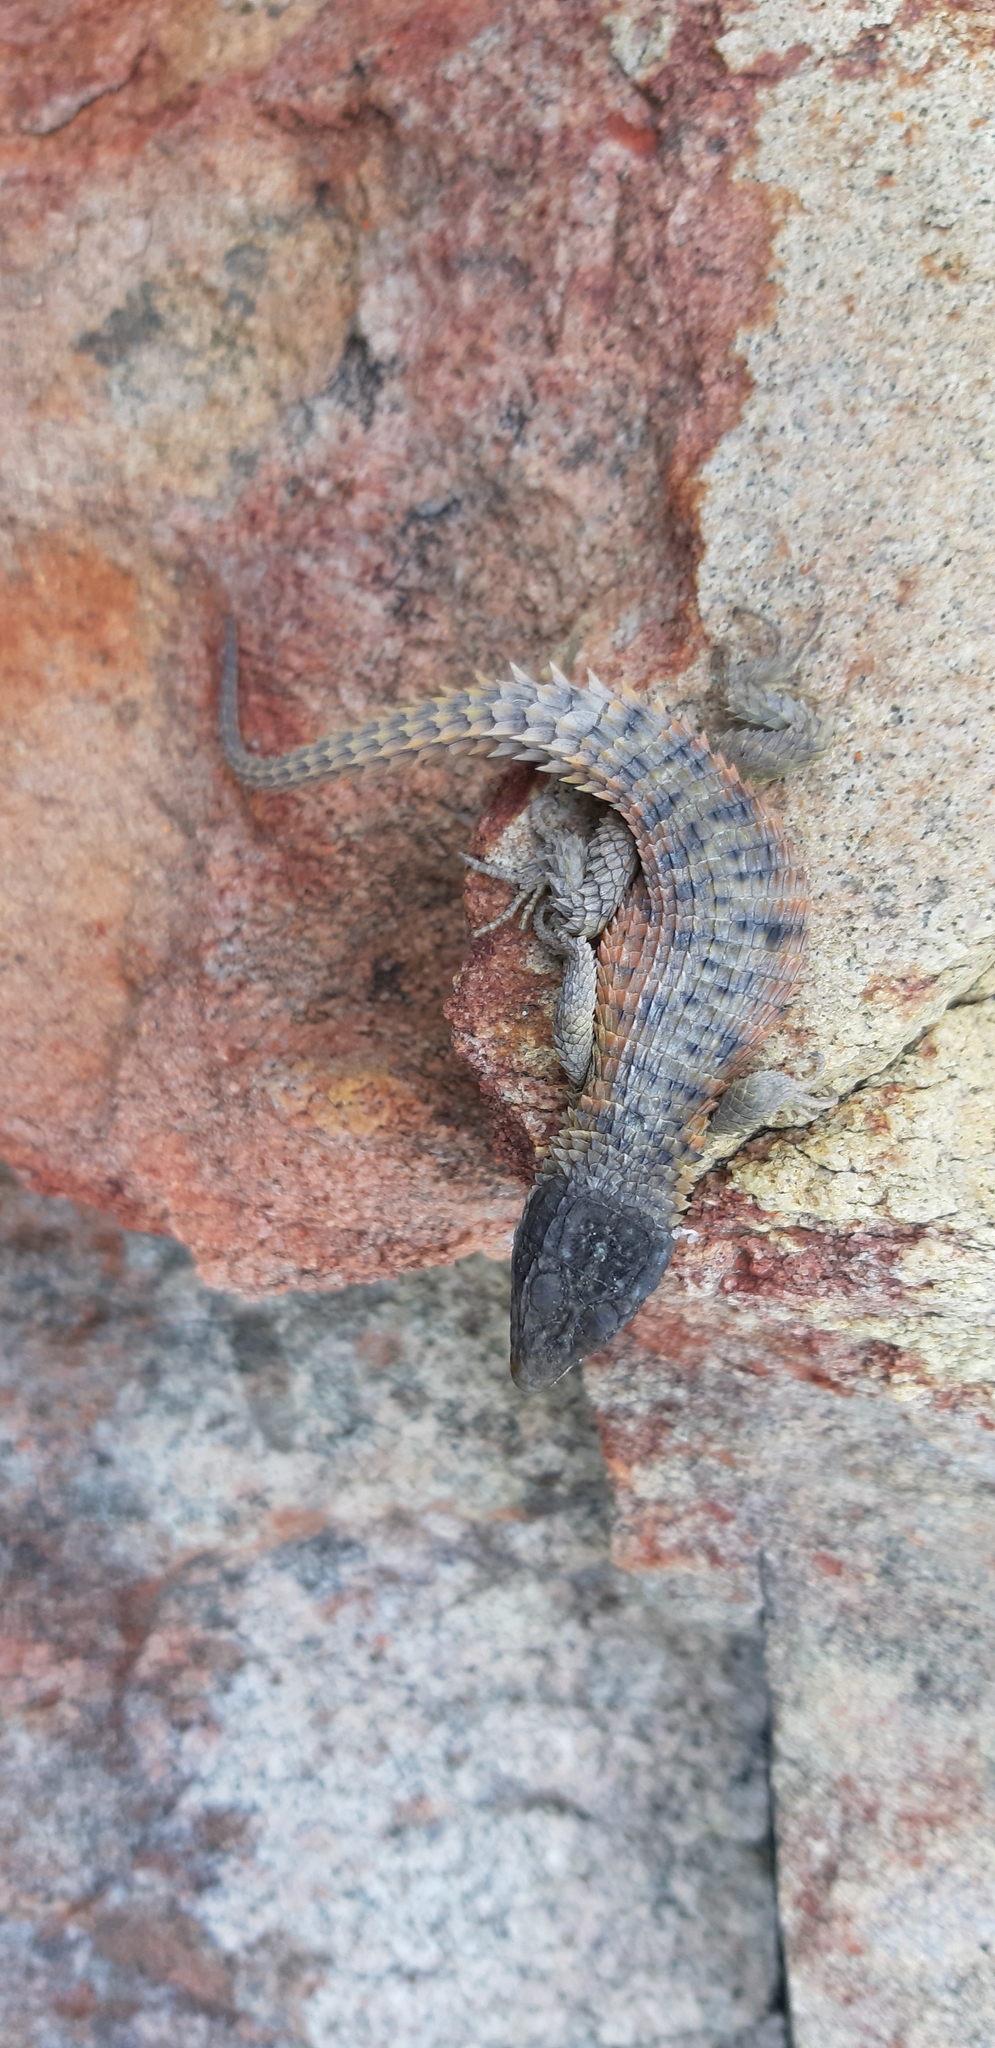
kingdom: Animalia
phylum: Chordata
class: Squamata
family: Cordylidae
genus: Cordylus
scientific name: Cordylus cordylus
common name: Cape girdled lizard
